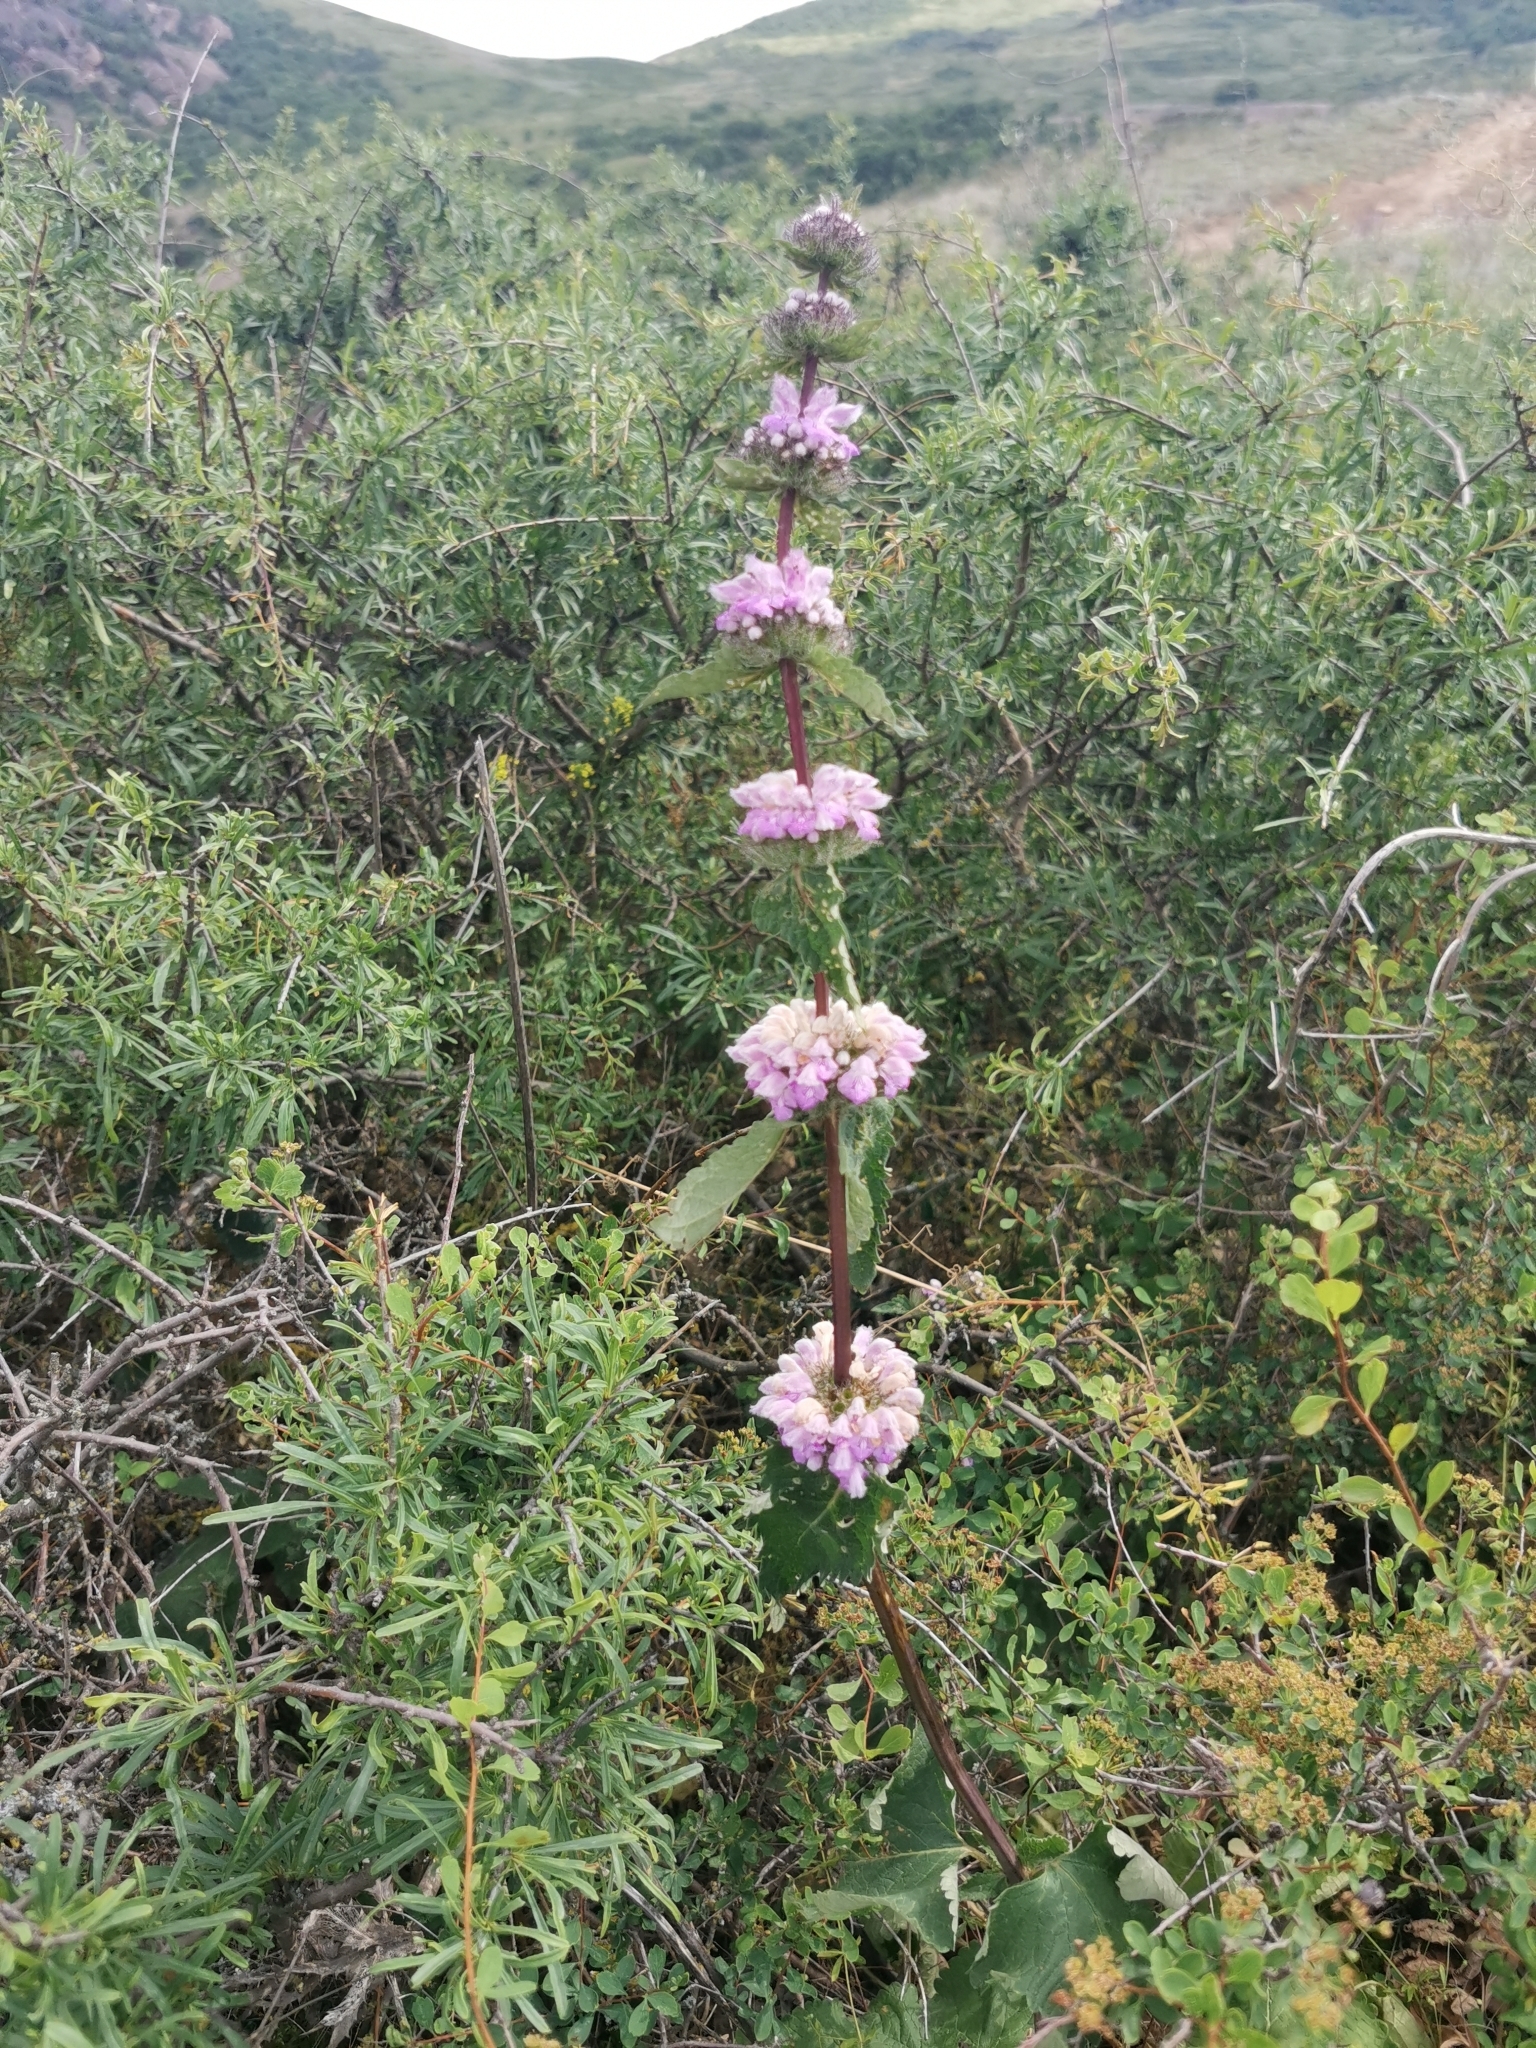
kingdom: Plantae
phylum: Tracheophyta
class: Magnoliopsida
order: Lamiales
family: Lamiaceae
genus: Phlomoides
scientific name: Phlomoides tuberosa
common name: Tuberous jerusalem sage
